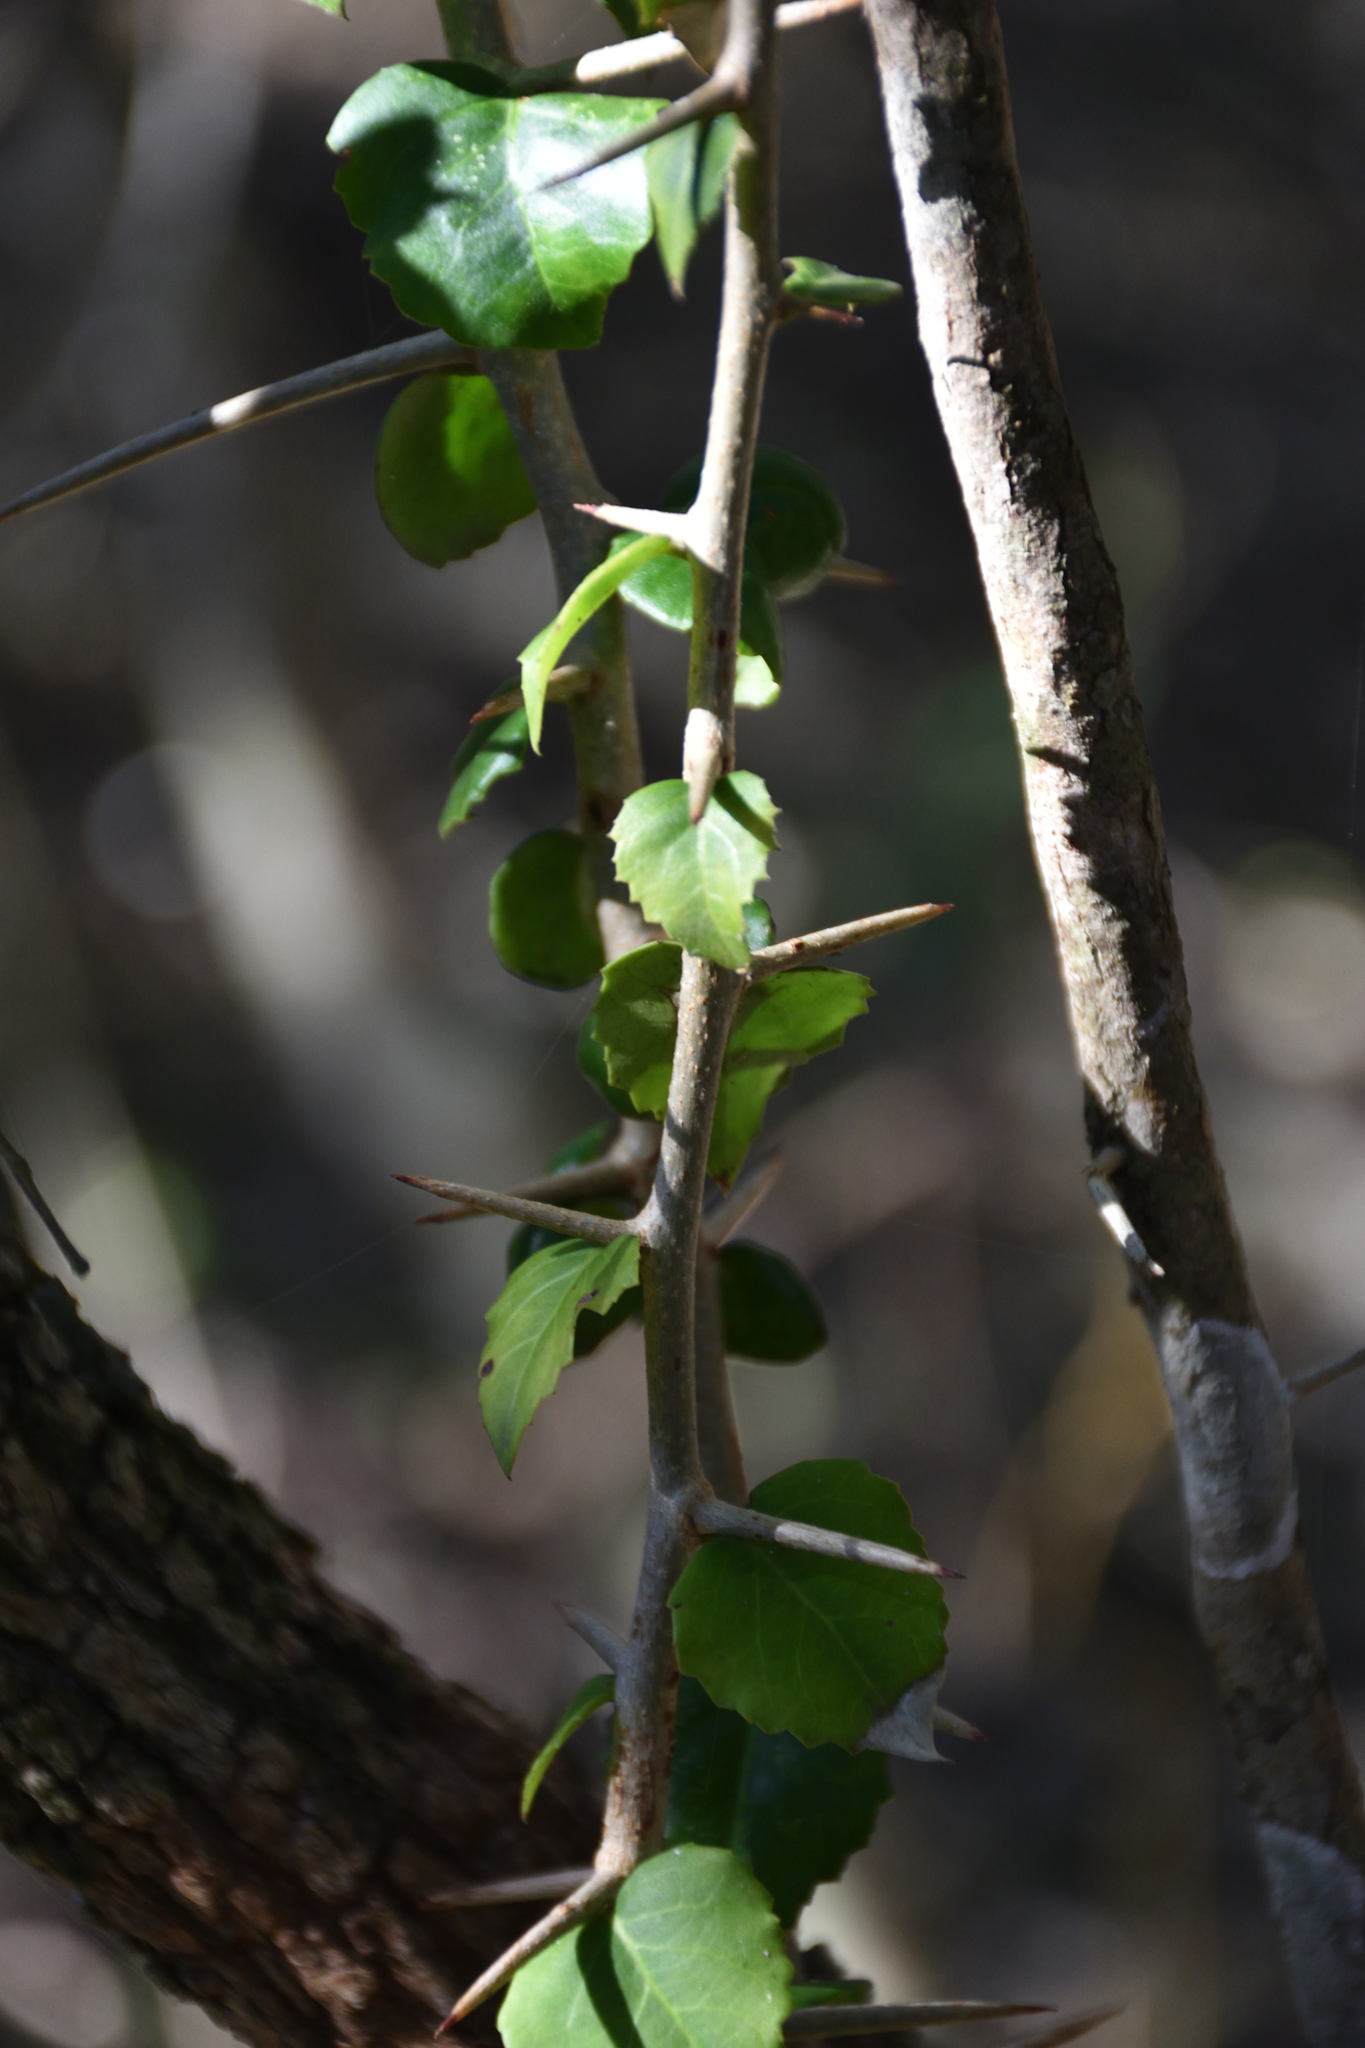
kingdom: Plantae
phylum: Tracheophyta
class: Magnoliopsida
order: Malpighiales
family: Salicaceae
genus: Scolopia
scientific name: Scolopia zeyheri
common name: Thorn pear
